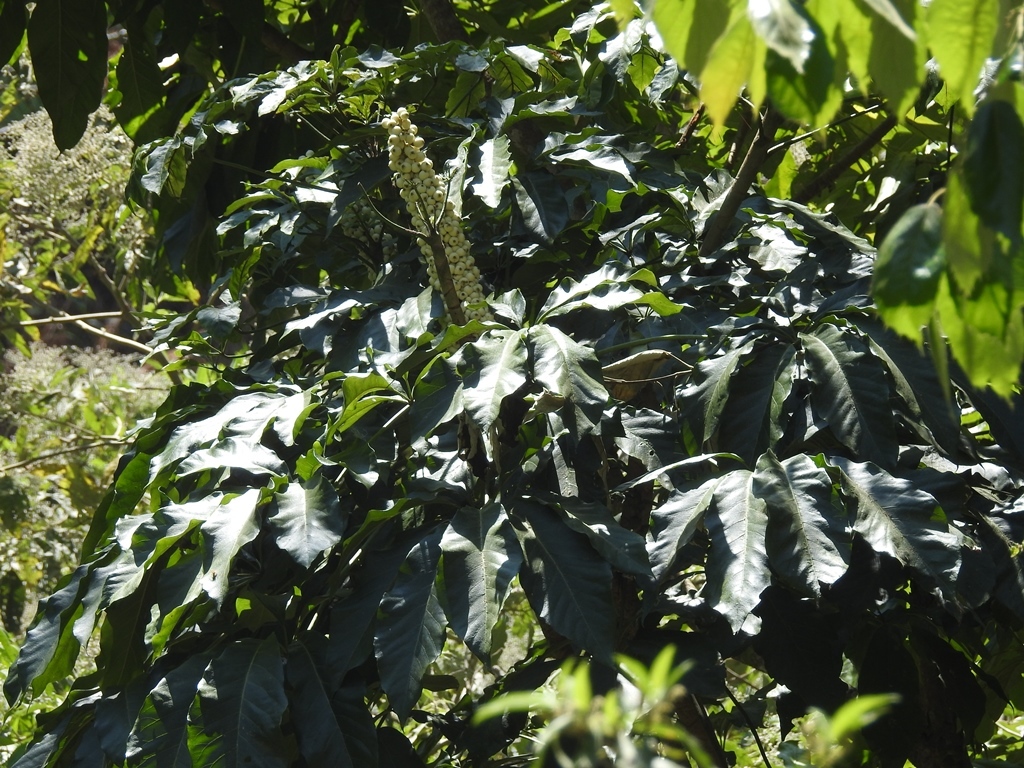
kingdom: Plantae
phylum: Tracheophyta
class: Magnoliopsida
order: Apiales
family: Araliaceae
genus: Oreopanax
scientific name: Oreopanax xalapensis
